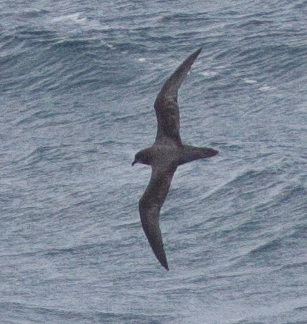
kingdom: Animalia
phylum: Chordata
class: Aves
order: Procellariiformes
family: Procellariidae
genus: Pterodroma
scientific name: Pterodroma ultima
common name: Murphy's petrel
